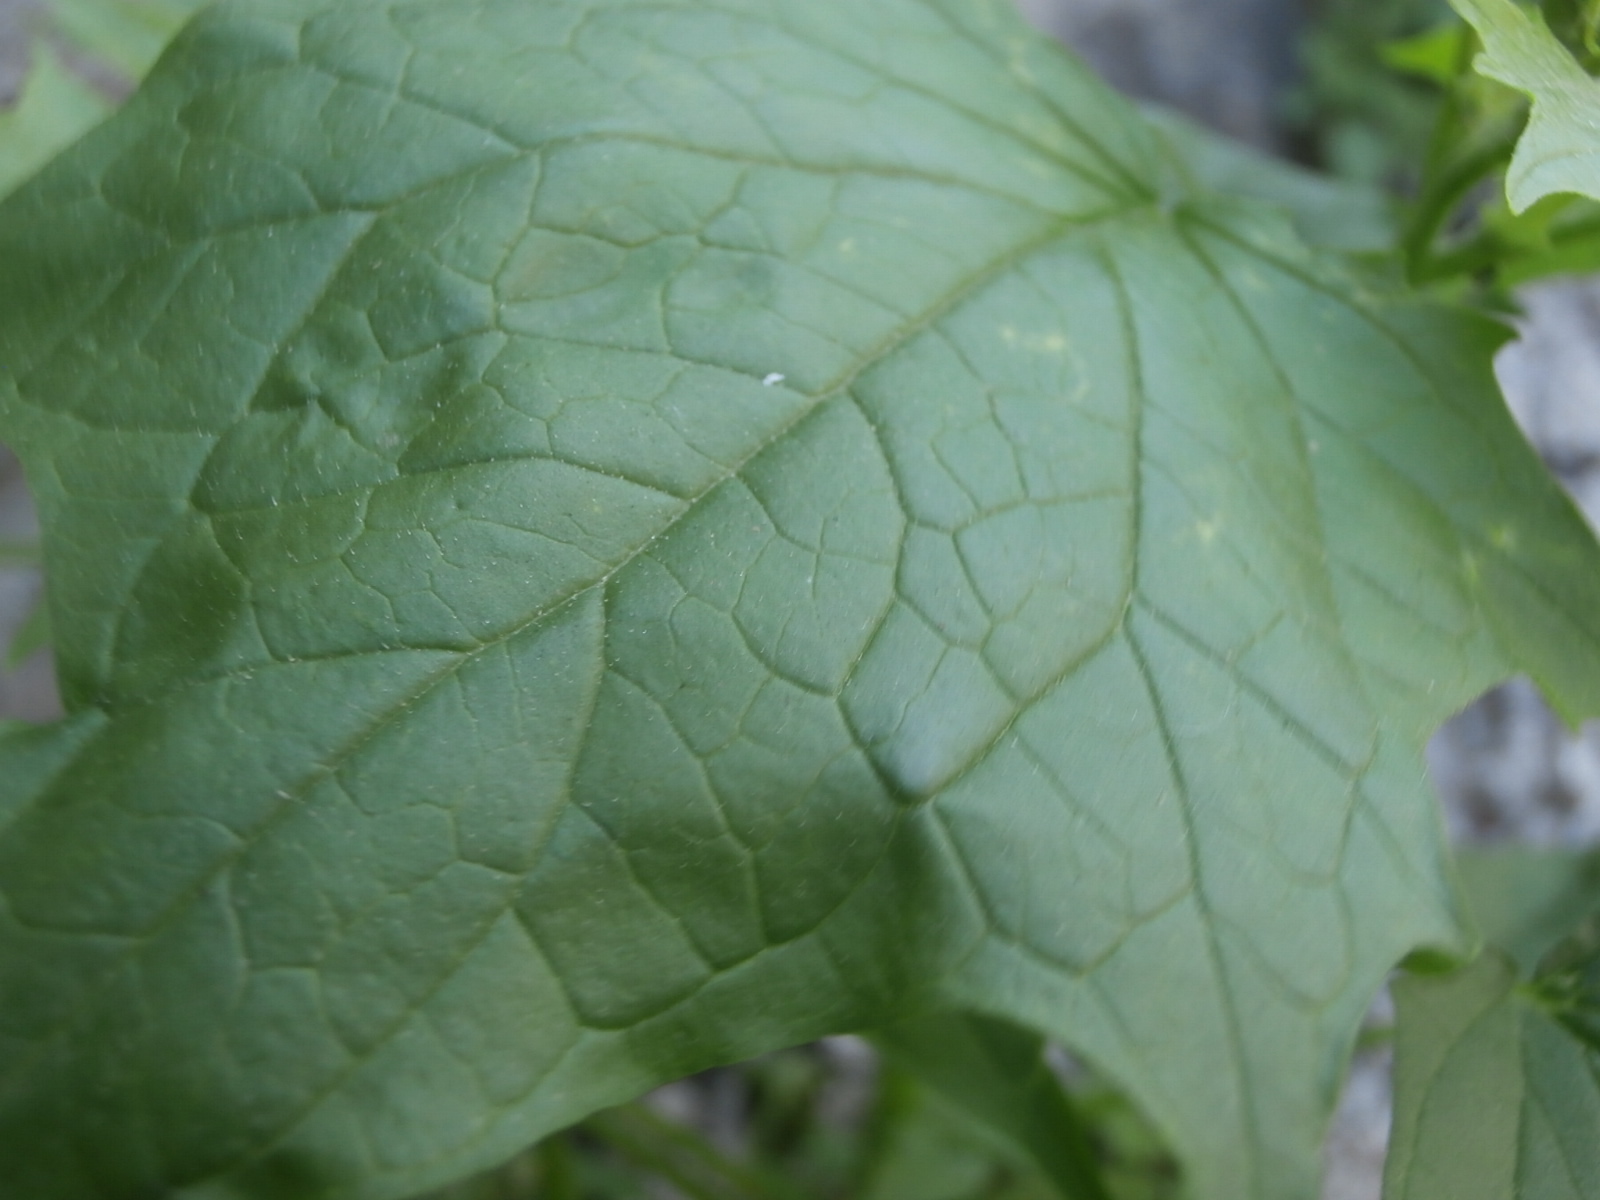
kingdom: Plantae
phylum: Tracheophyta
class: Magnoliopsida
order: Caryophyllales
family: Amaranthaceae
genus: Chenopodiastrum
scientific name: Chenopodiastrum simplex
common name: Large-seed goosefoot
